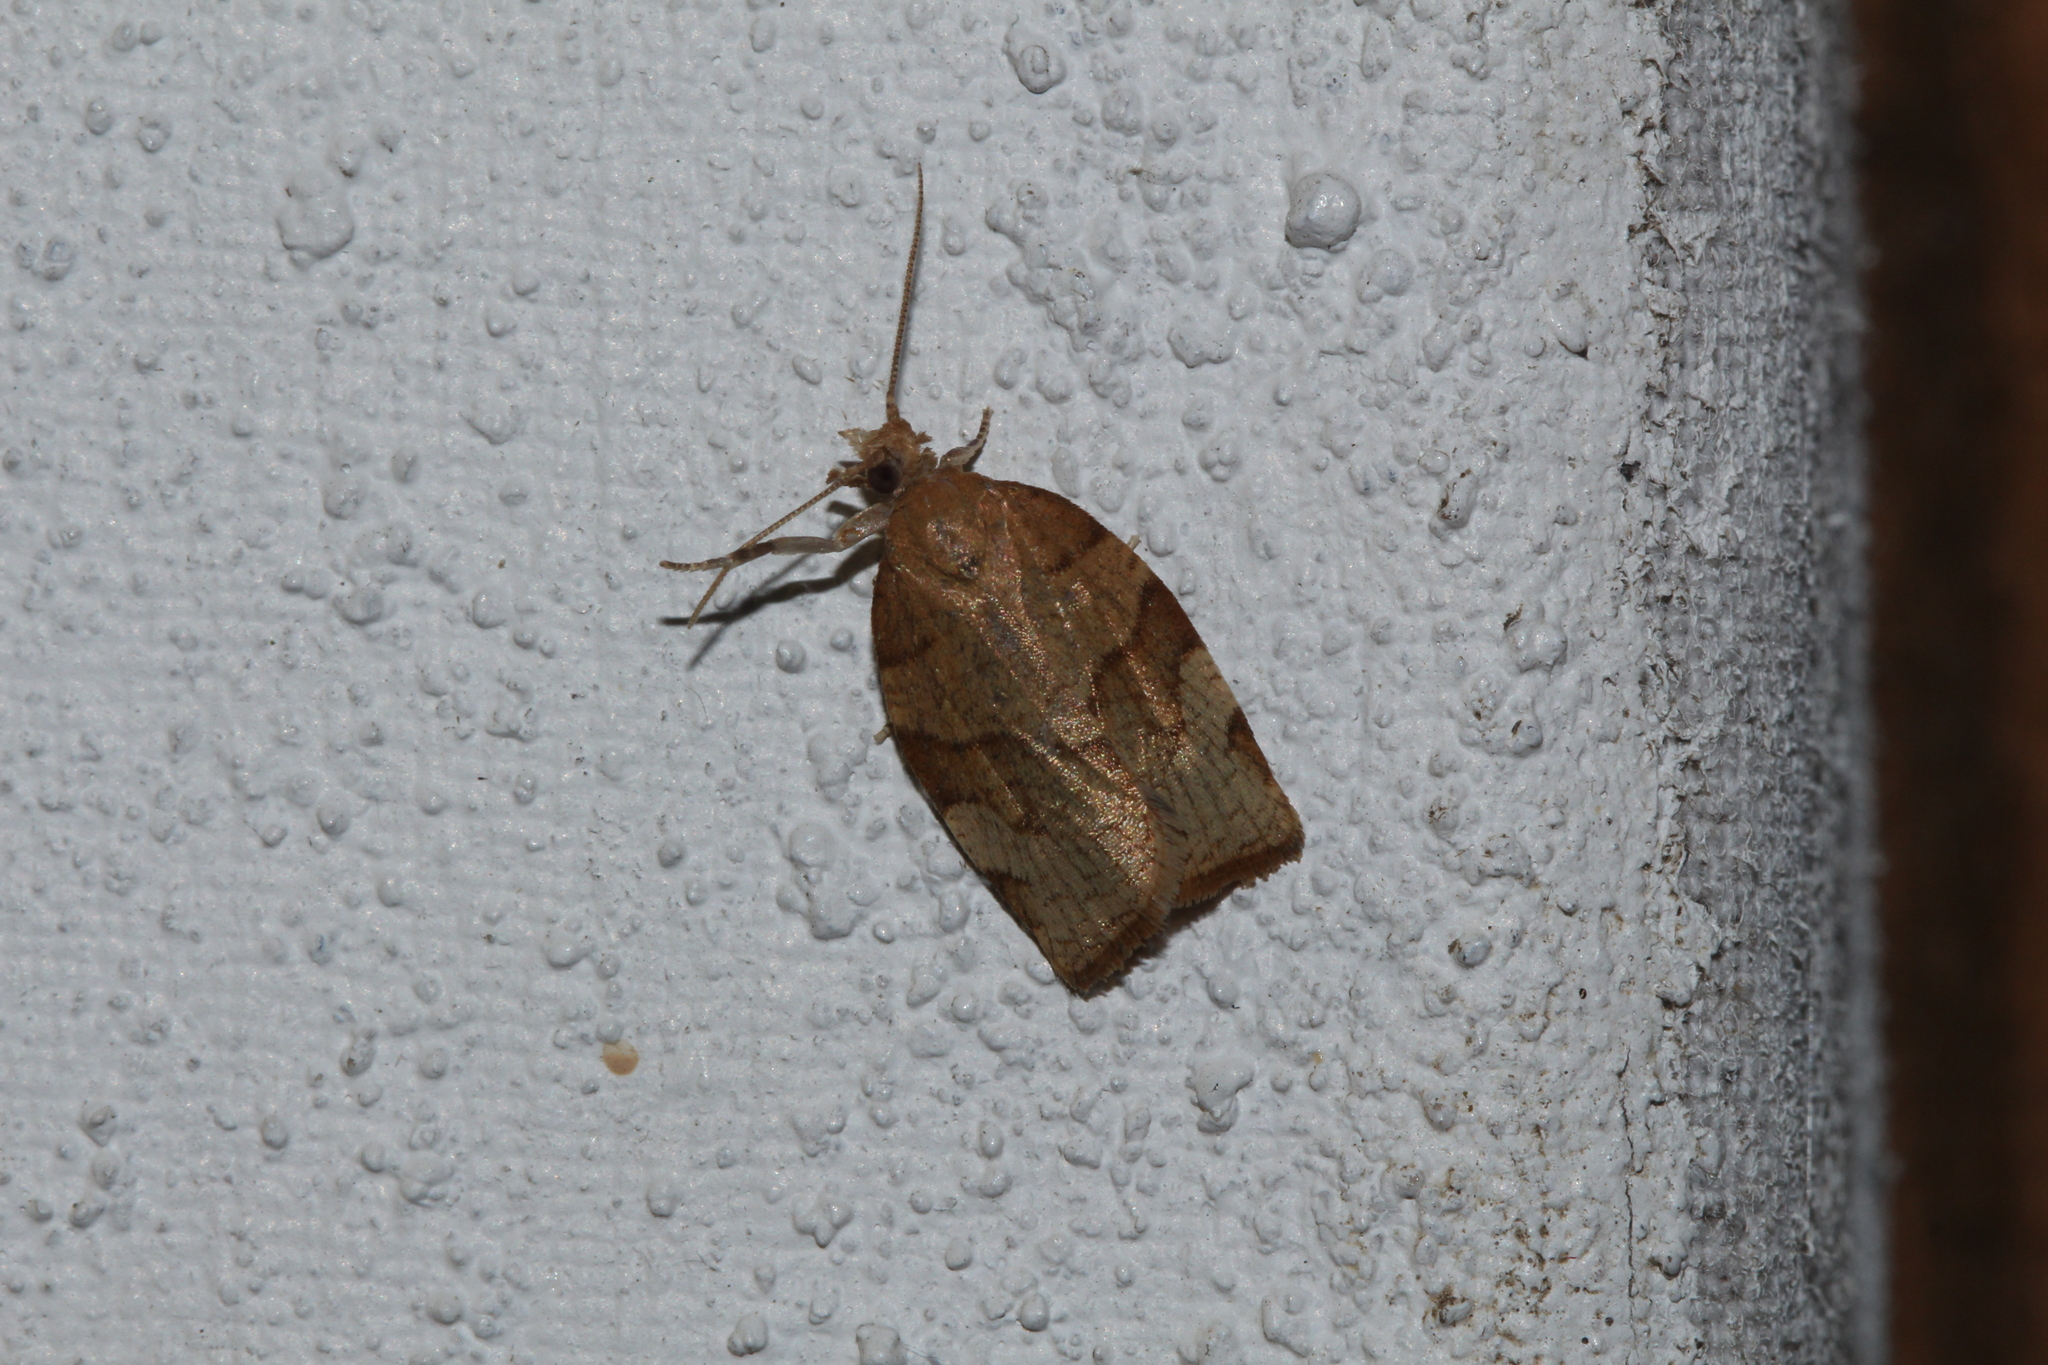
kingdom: Animalia
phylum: Arthropoda
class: Insecta
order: Lepidoptera
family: Tortricidae
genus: Pandemis
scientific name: Pandemis cerasana
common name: Barred fruit-tree tortrix
